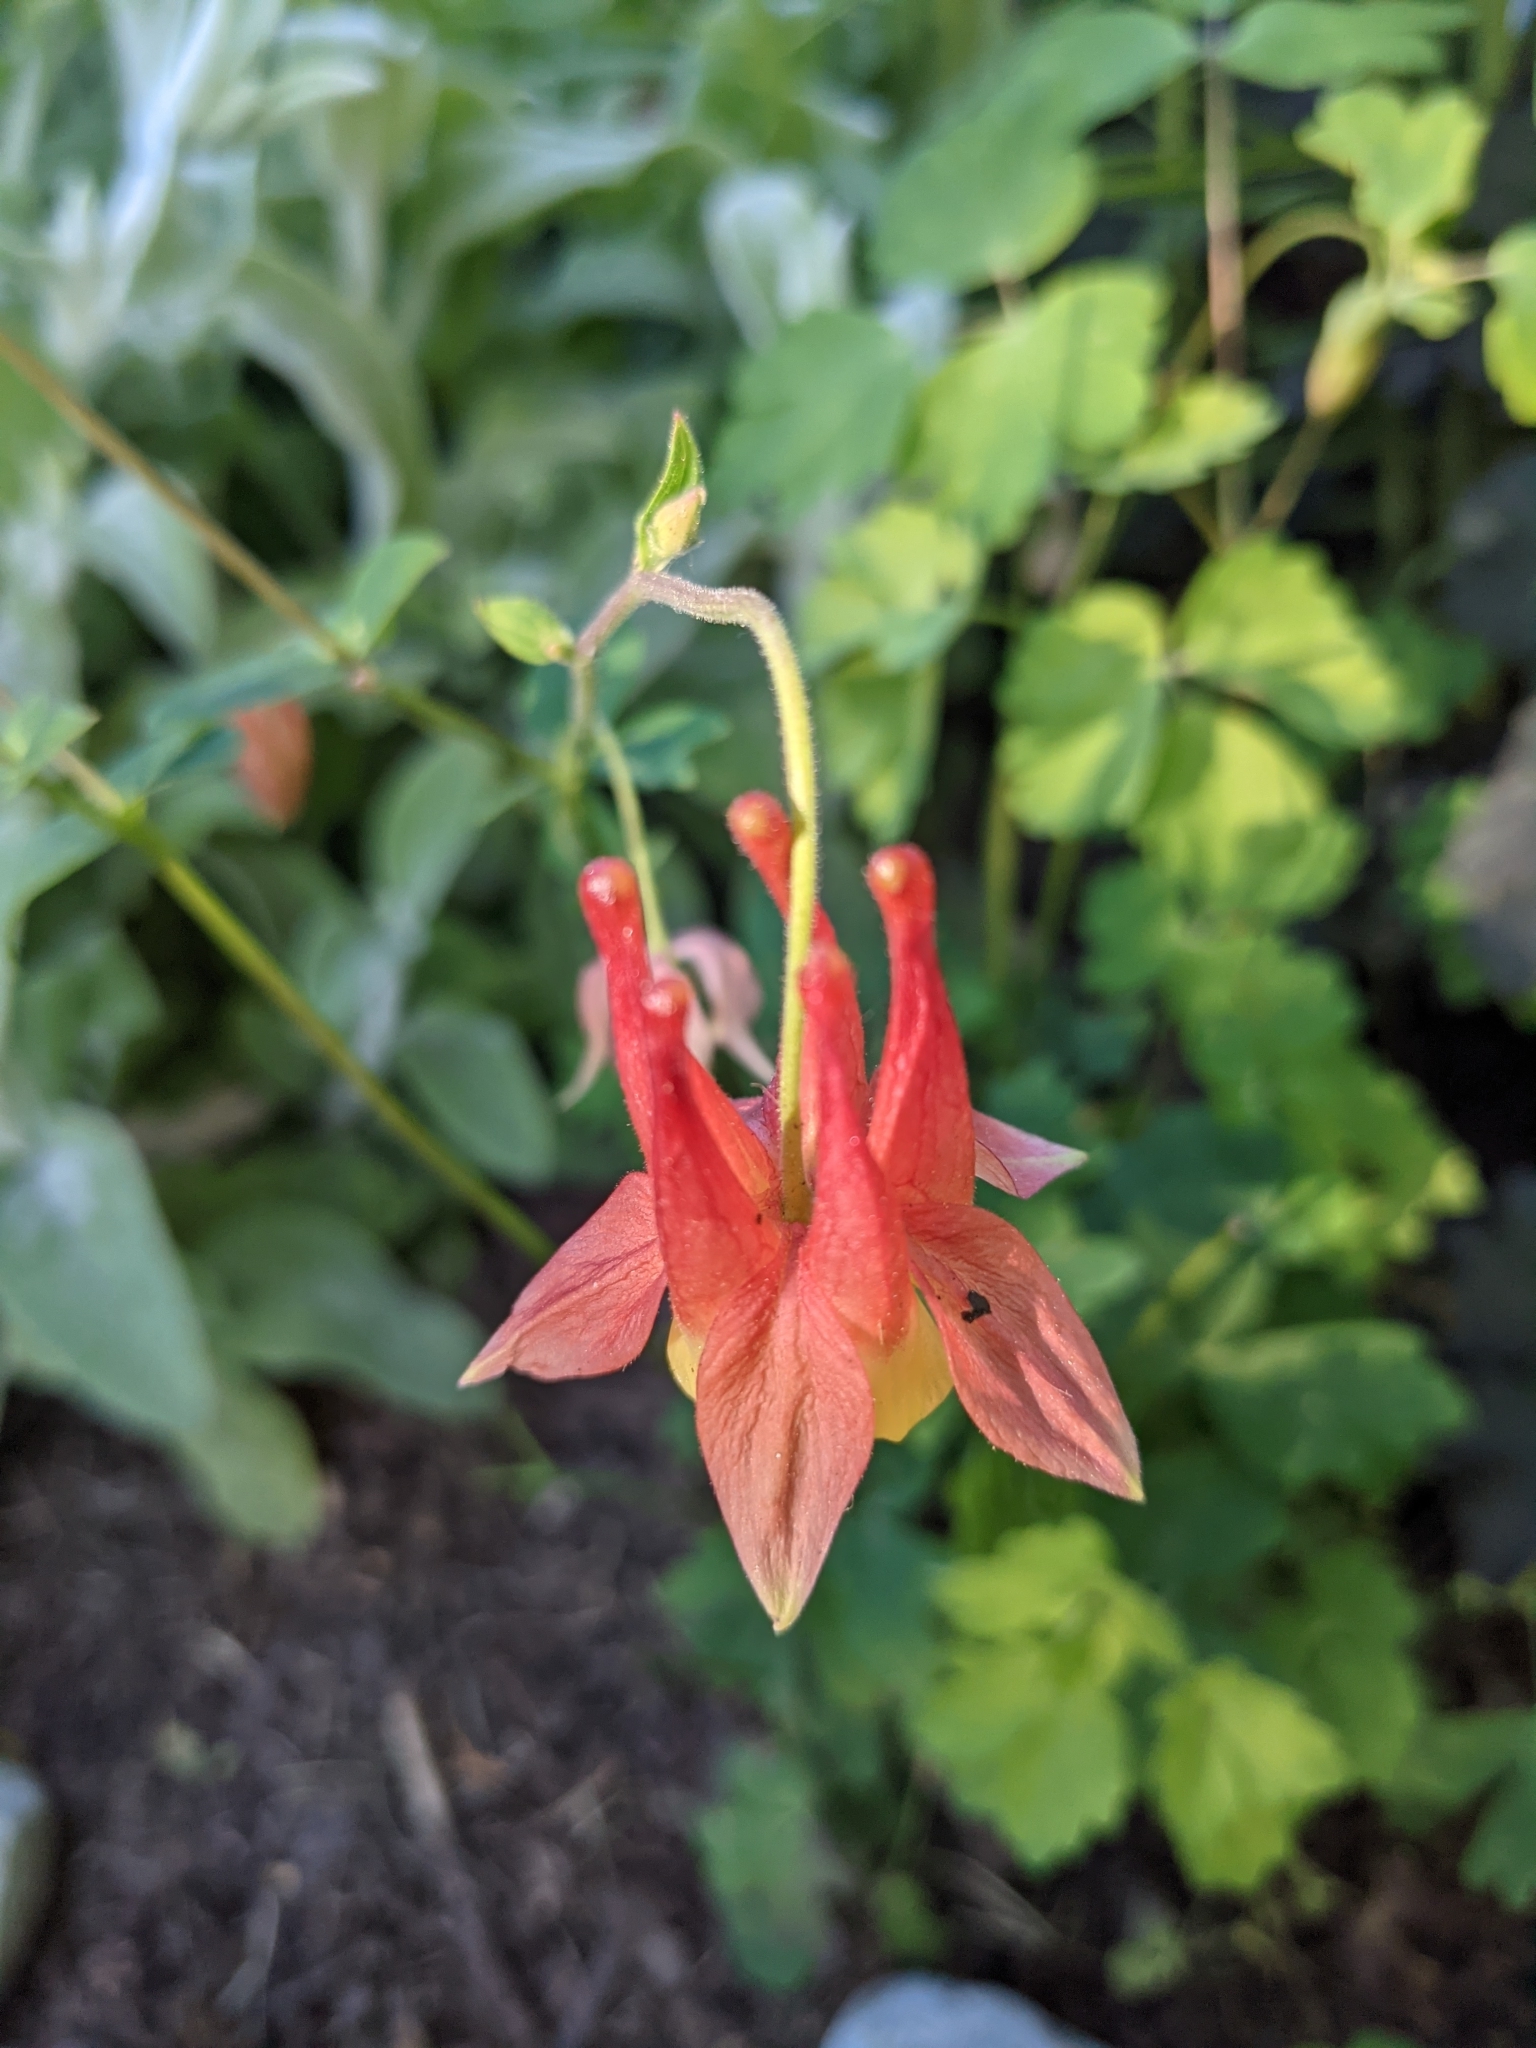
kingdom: Plantae
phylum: Tracheophyta
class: Magnoliopsida
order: Ranunculales
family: Ranunculaceae
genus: Aquilegia
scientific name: Aquilegia formosa
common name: Sitka columbine
